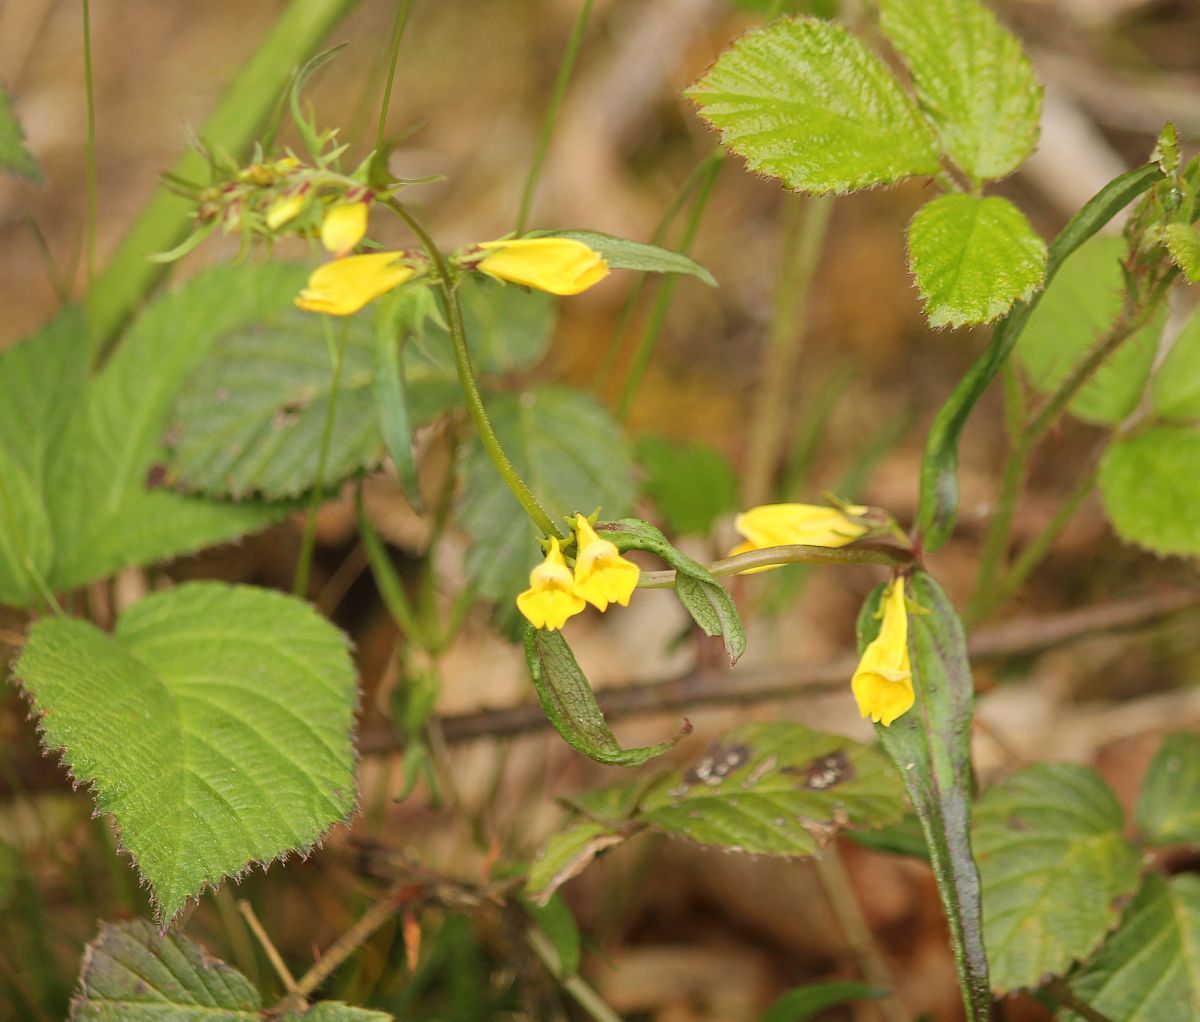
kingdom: Plantae
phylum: Tracheophyta
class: Magnoliopsida
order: Lamiales
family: Orobanchaceae
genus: Melampyrum
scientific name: Melampyrum pratense
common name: Common cow-wheat
